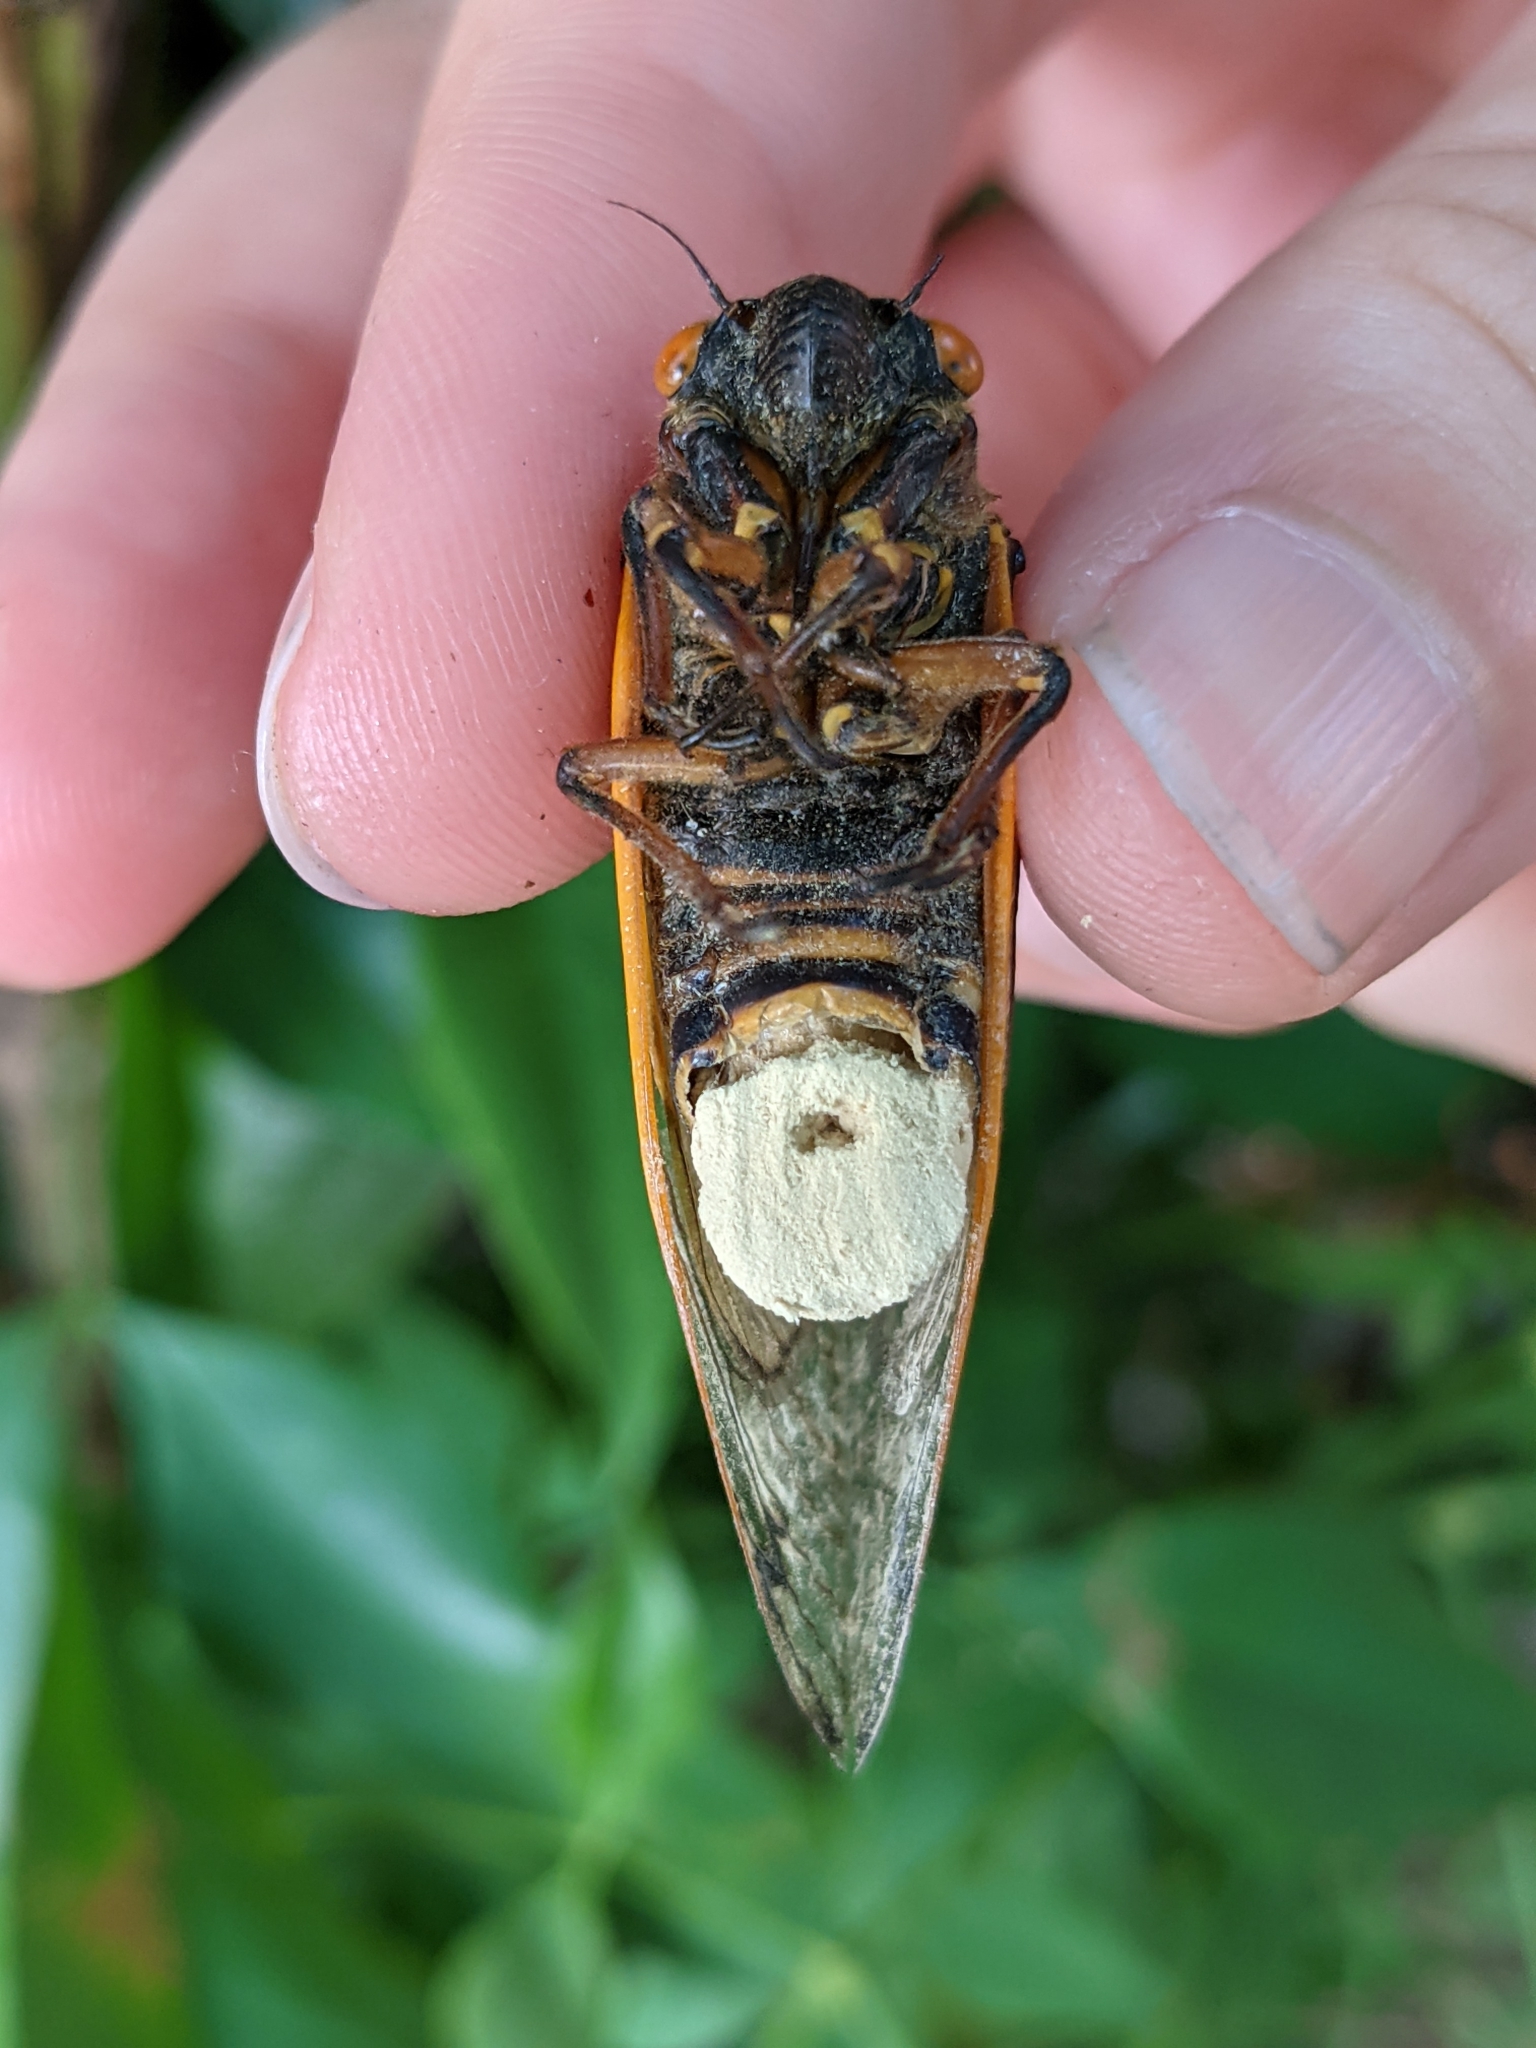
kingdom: Fungi
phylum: Entomophthoromycota
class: Entomophthoromycetes
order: Entomophthorales
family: Entomophthoraceae
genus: Massospora
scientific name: Massospora cicadina
